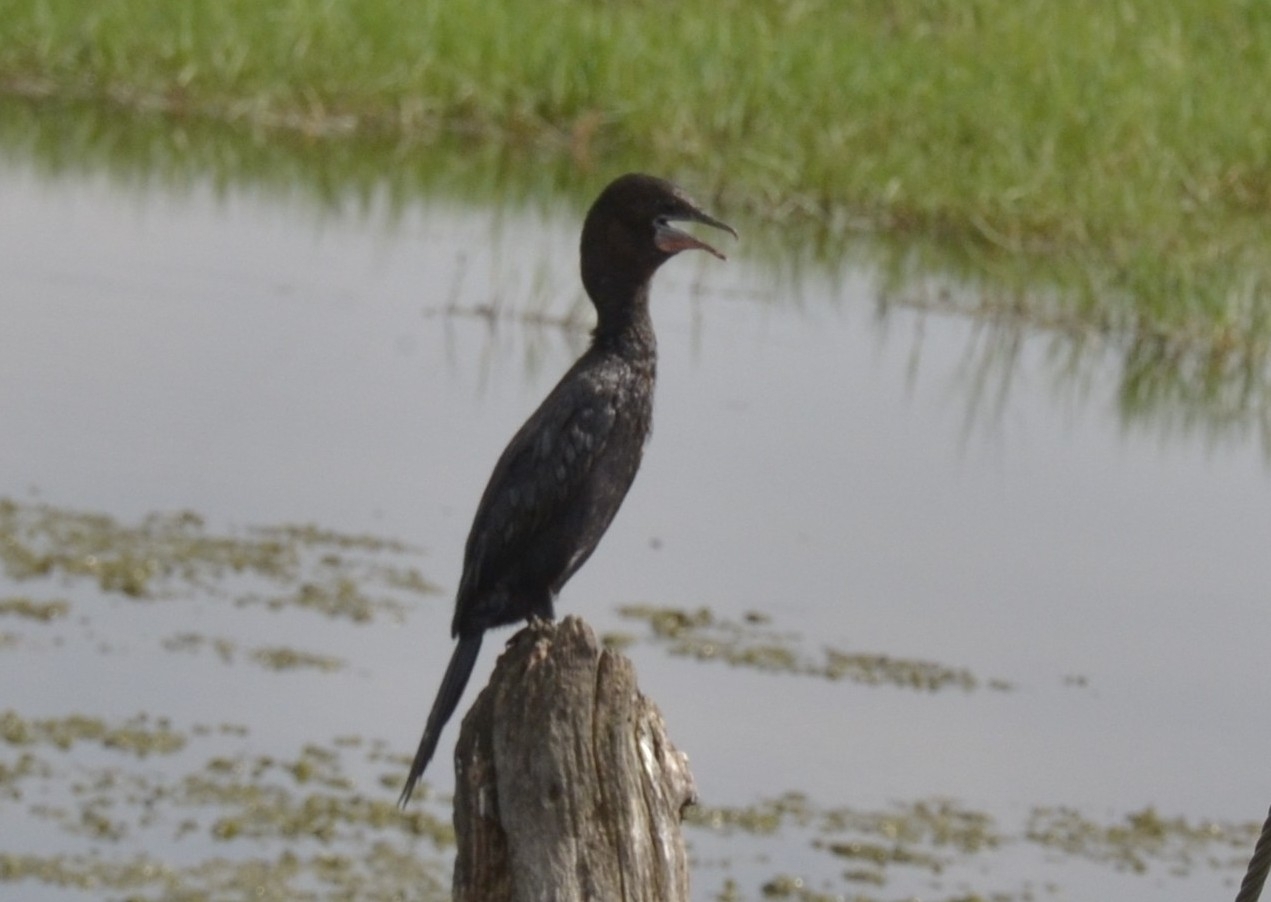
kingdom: Animalia
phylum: Chordata
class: Aves
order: Suliformes
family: Phalacrocoracidae
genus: Microcarbo
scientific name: Microcarbo niger
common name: Little cormorant
